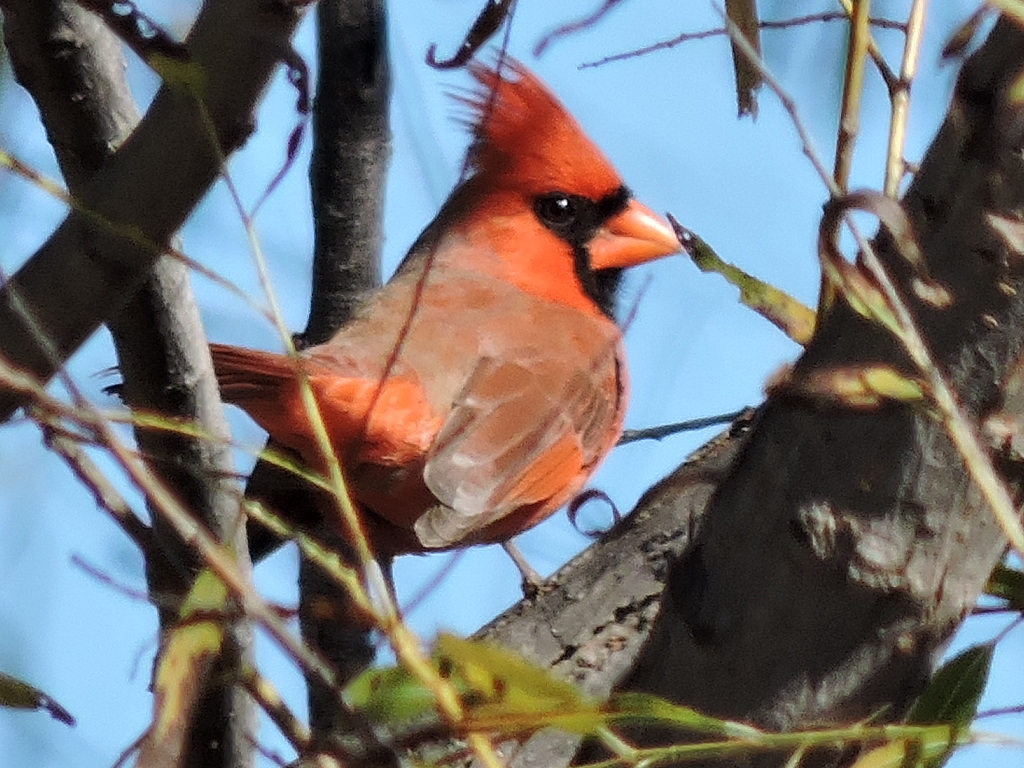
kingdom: Animalia
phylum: Chordata
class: Aves
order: Passeriformes
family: Cardinalidae
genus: Cardinalis
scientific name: Cardinalis cardinalis
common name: Northern cardinal
